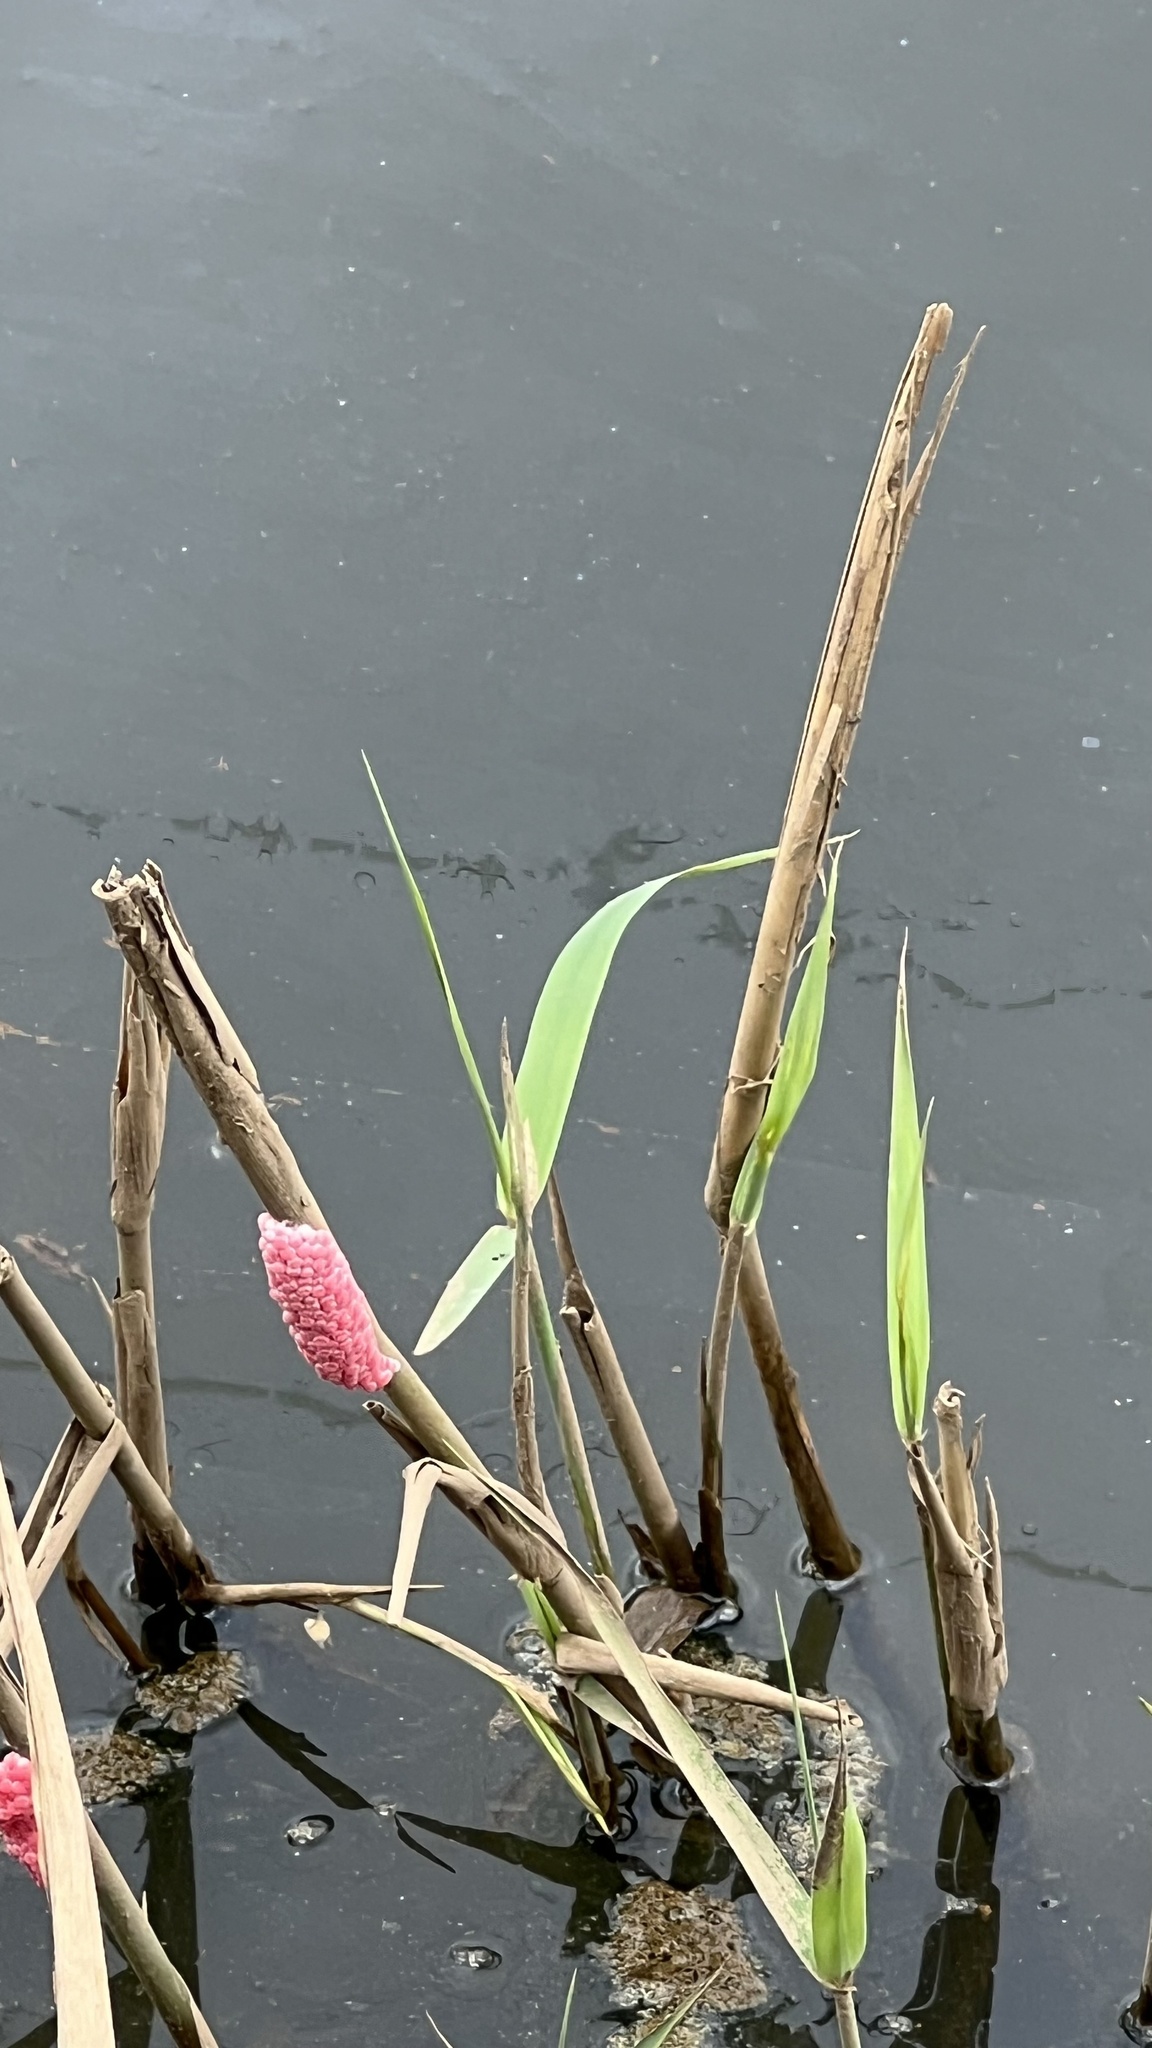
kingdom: Animalia
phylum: Mollusca
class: Gastropoda
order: Architaenioglossa
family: Ampullariidae
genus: Pomacea
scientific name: Pomacea maculata
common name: Giant applesnail
